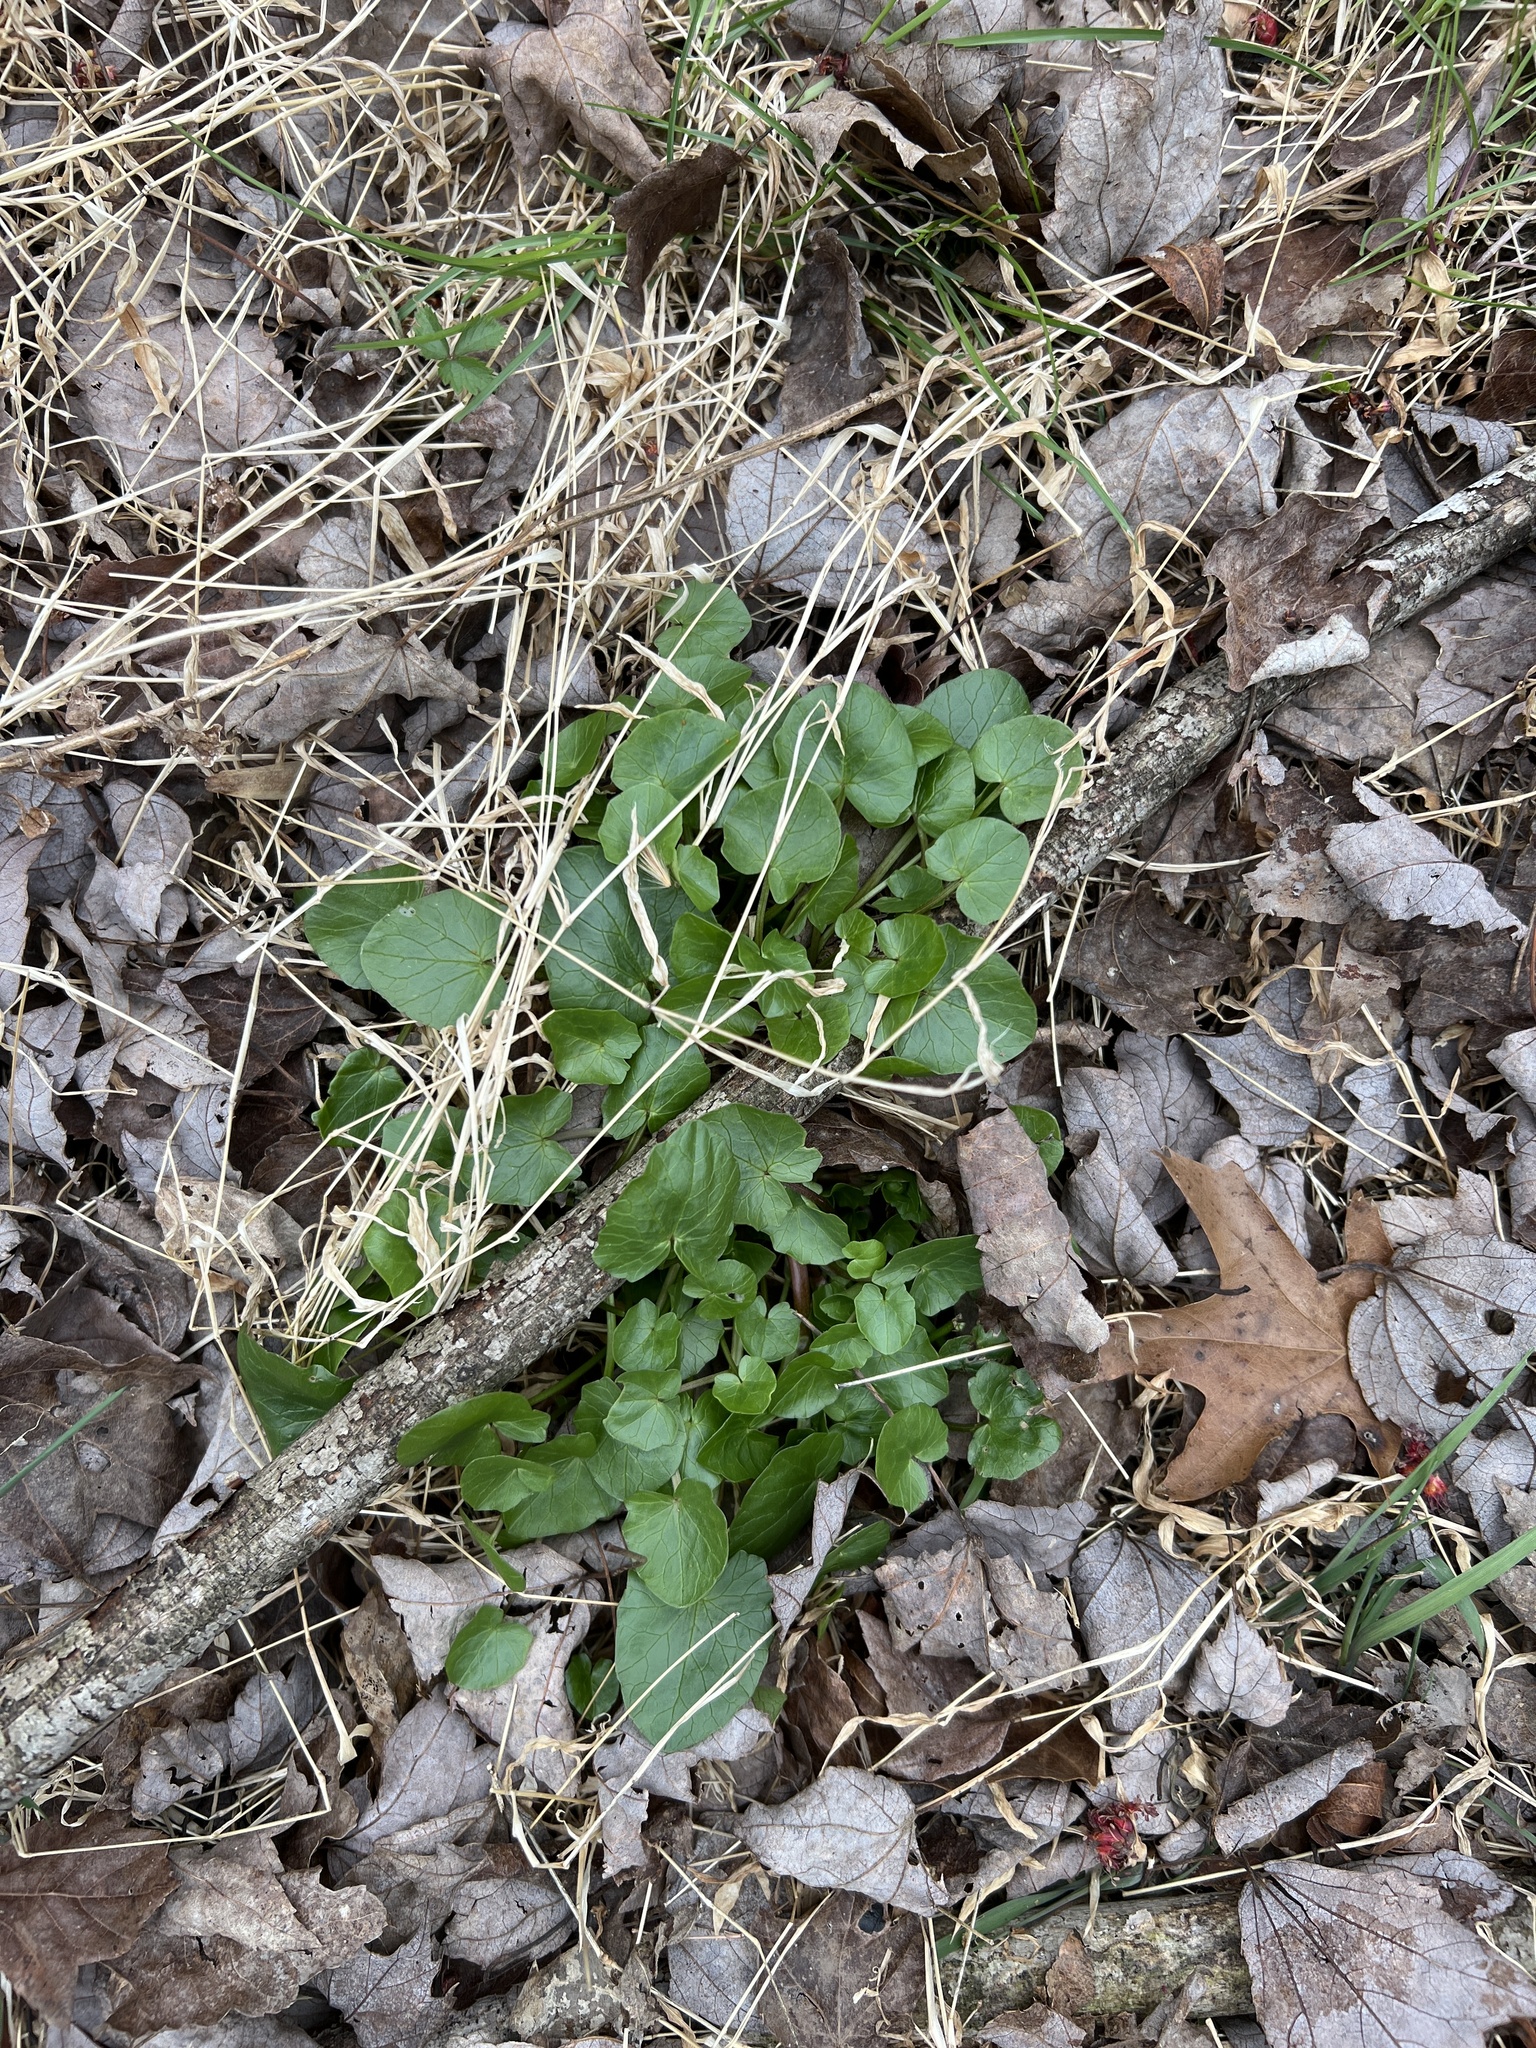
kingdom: Plantae
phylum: Tracheophyta
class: Magnoliopsida
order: Ranunculales
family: Ranunculaceae
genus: Ficaria
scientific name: Ficaria verna
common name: Lesser celandine
